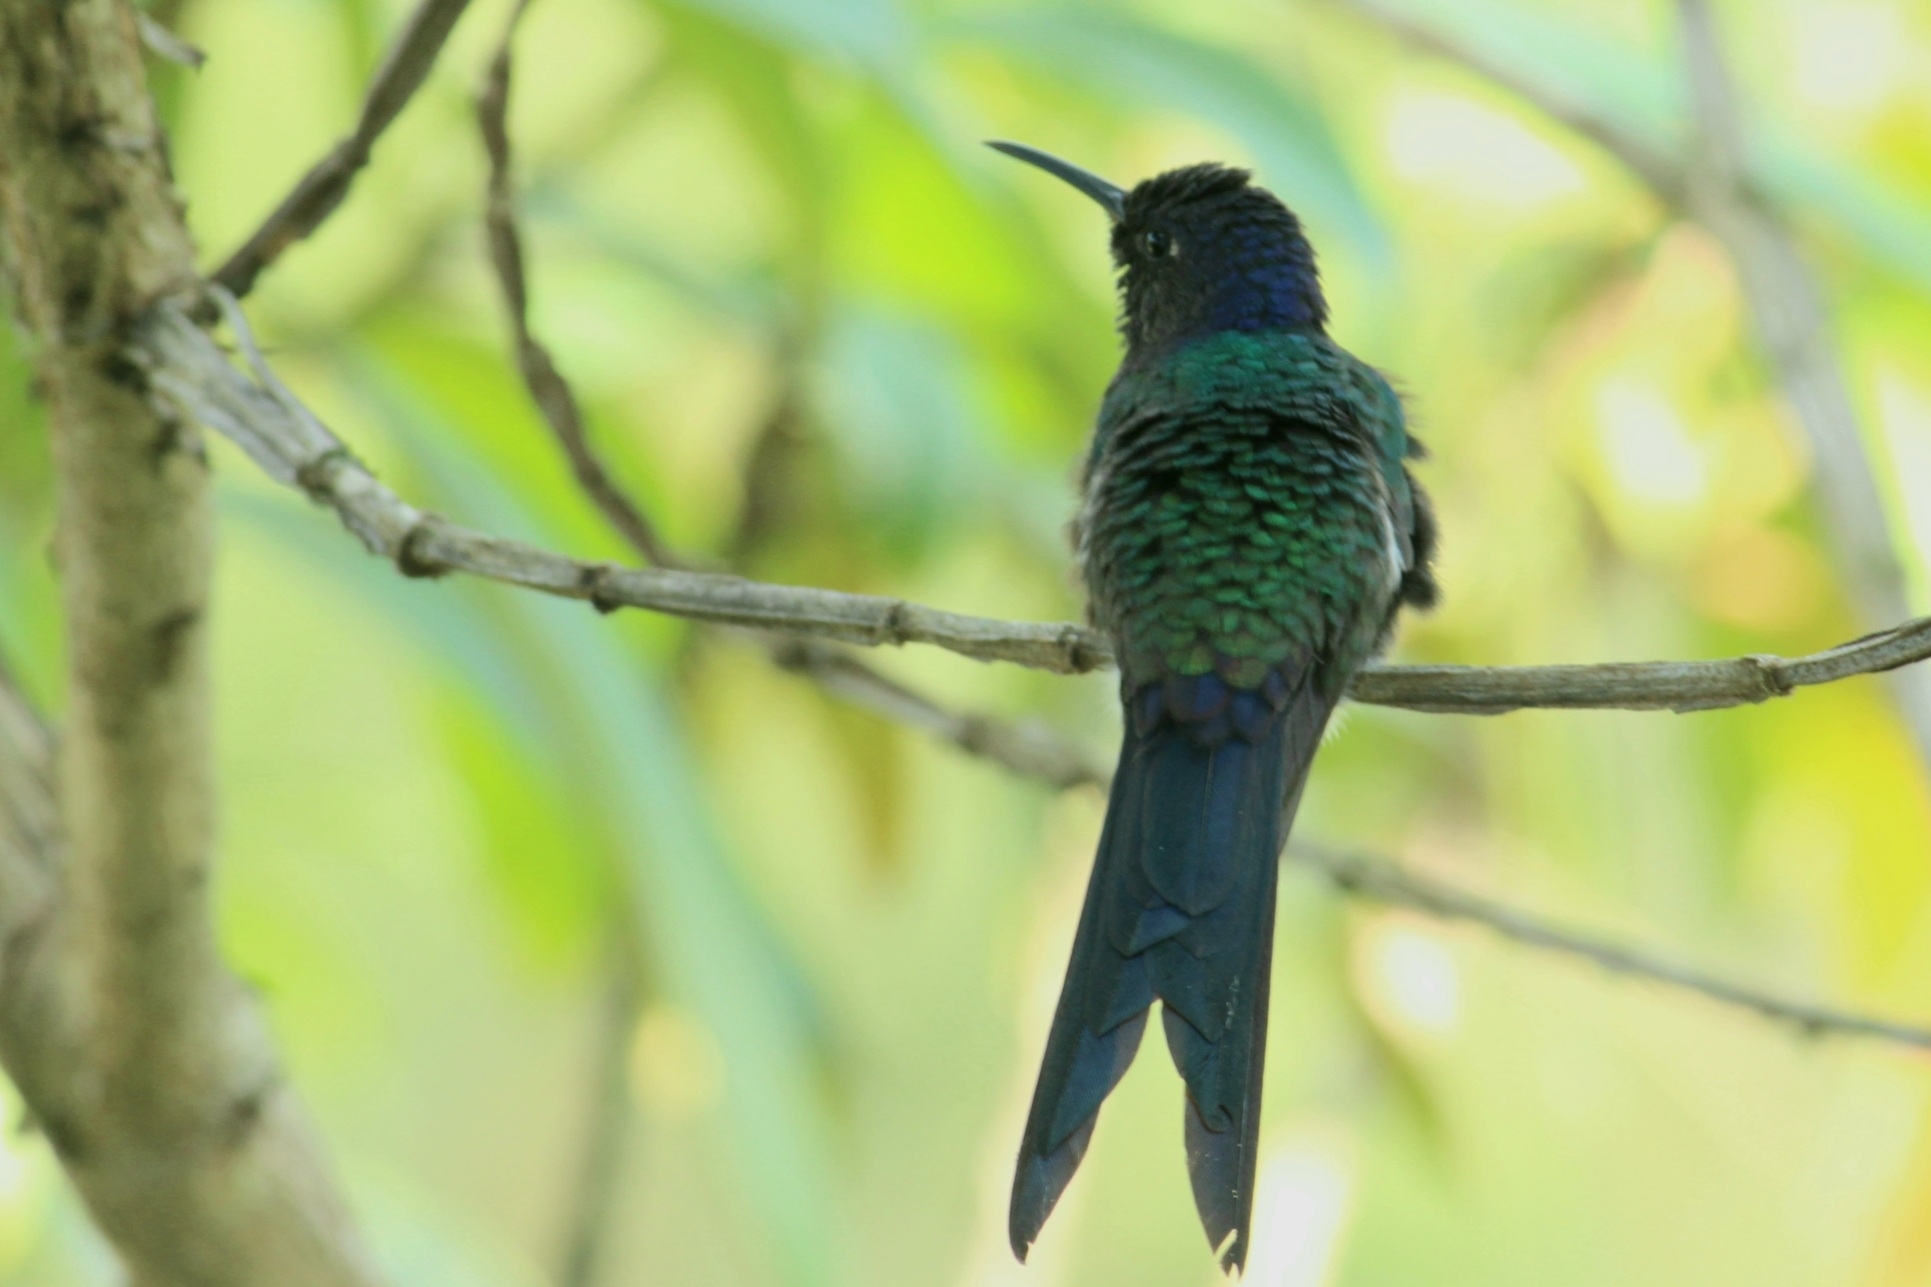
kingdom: Animalia
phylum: Chordata
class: Aves
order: Apodiformes
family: Trochilidae
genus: Eupetomena
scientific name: Eupetomena macroura
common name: Swallow-tailed hummingbird
